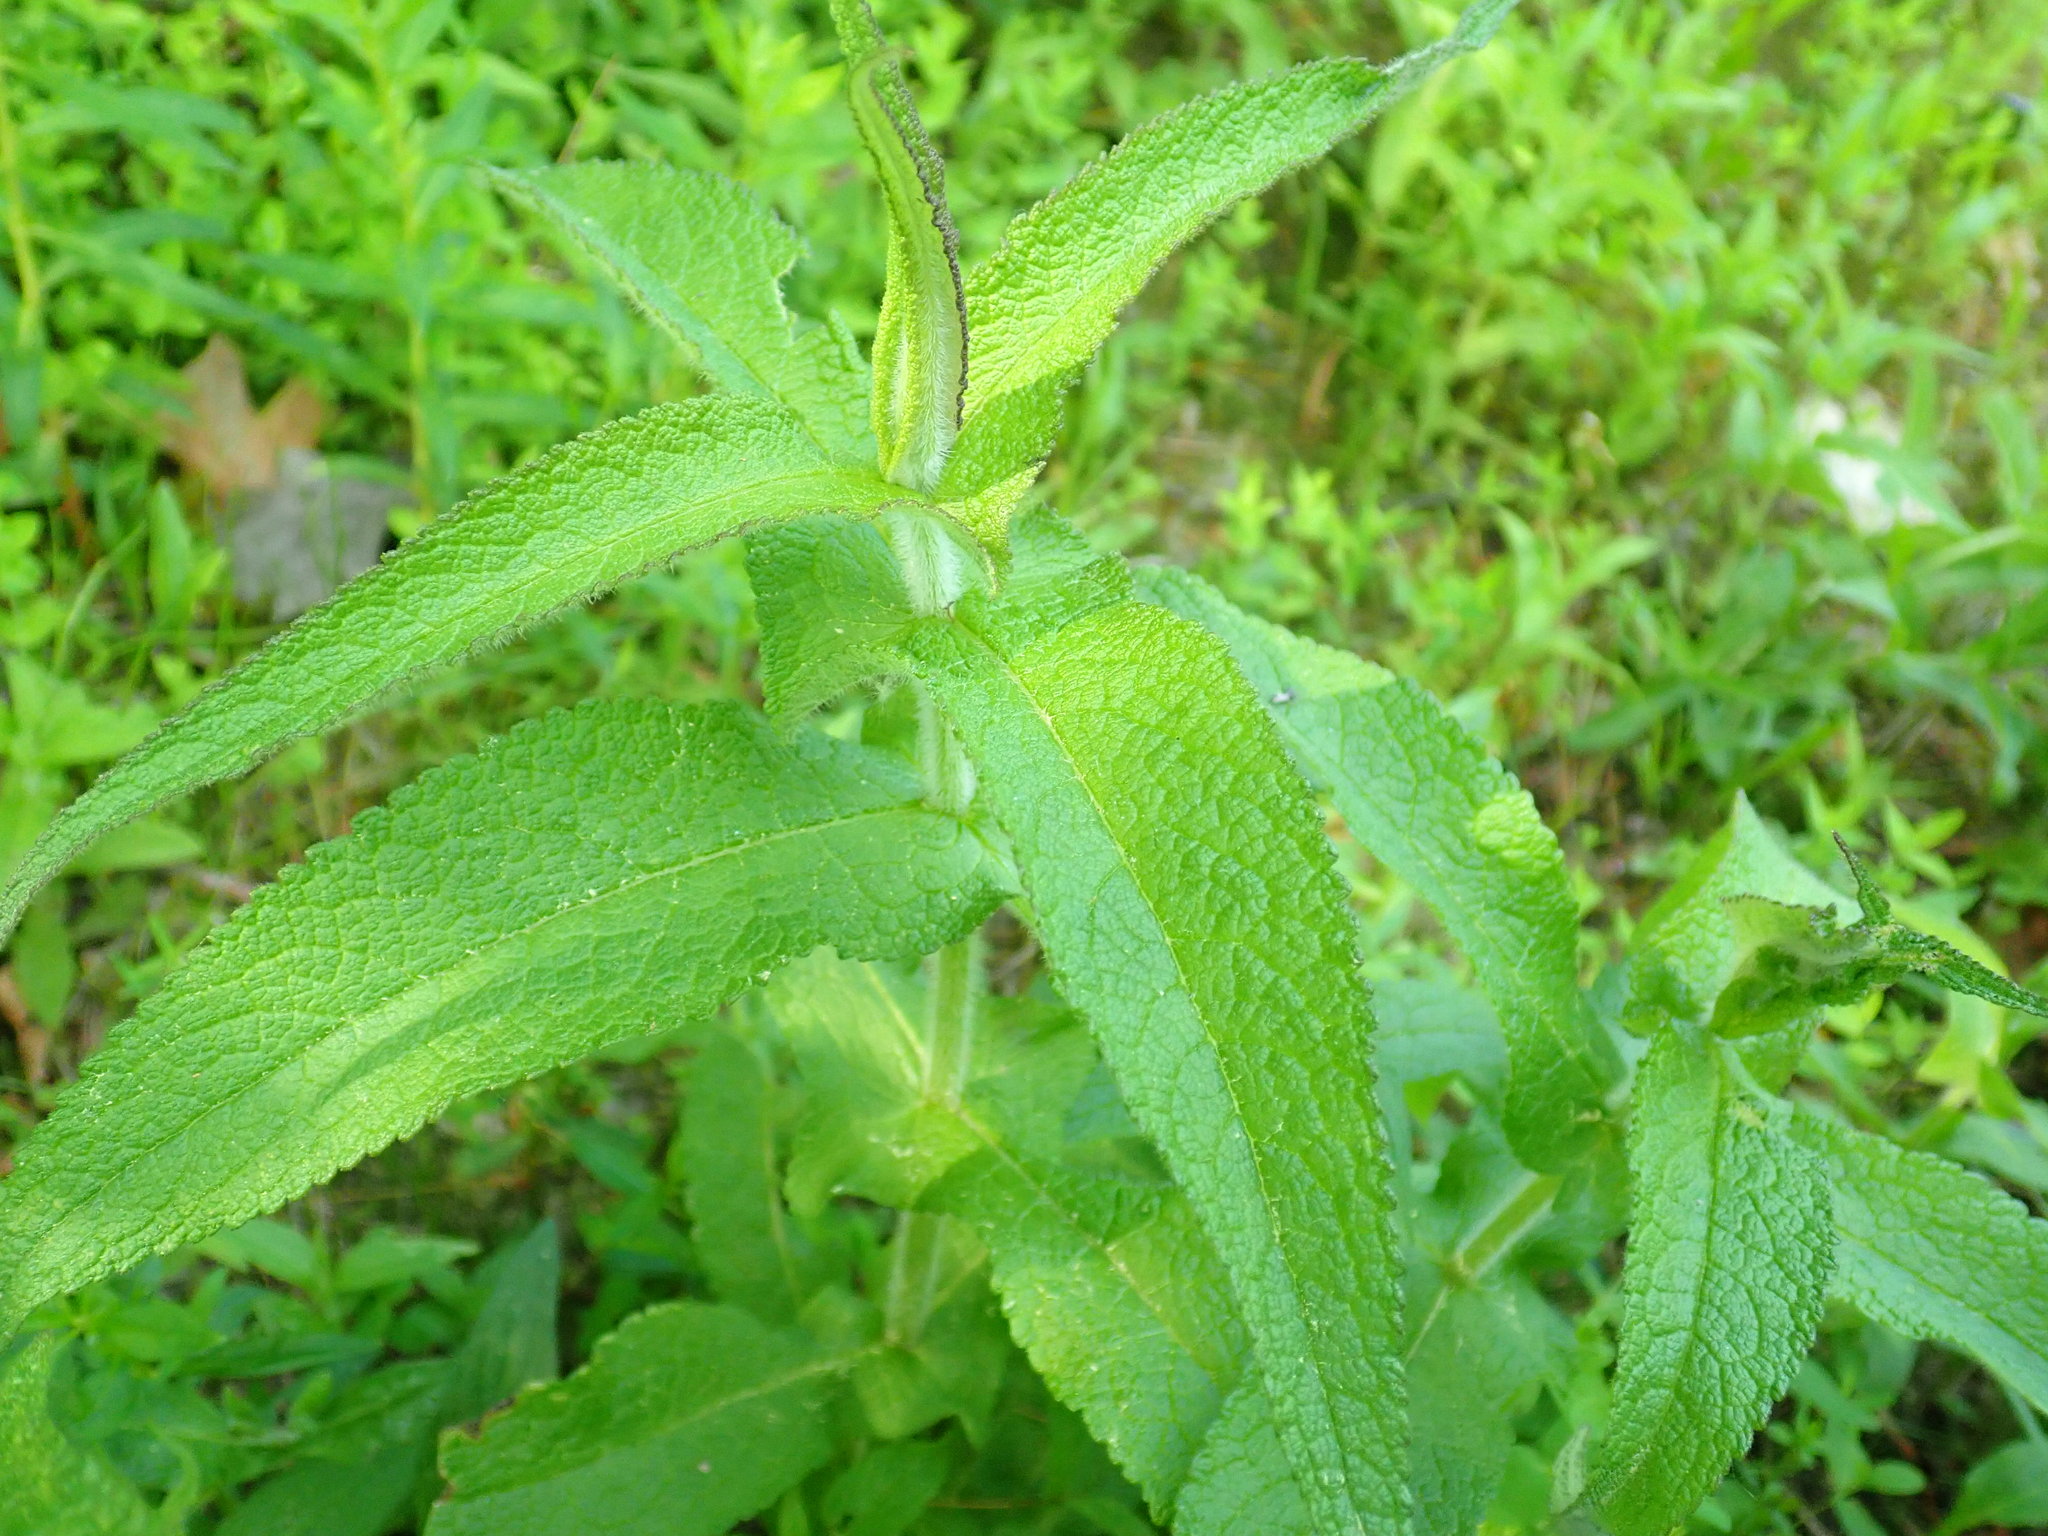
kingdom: Plantae
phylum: Tracheophyta
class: Magnoliopsida
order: Asterales
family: Asteraceae
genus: Eupatorium
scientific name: Eupatorium perfoliatum
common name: Boneset
